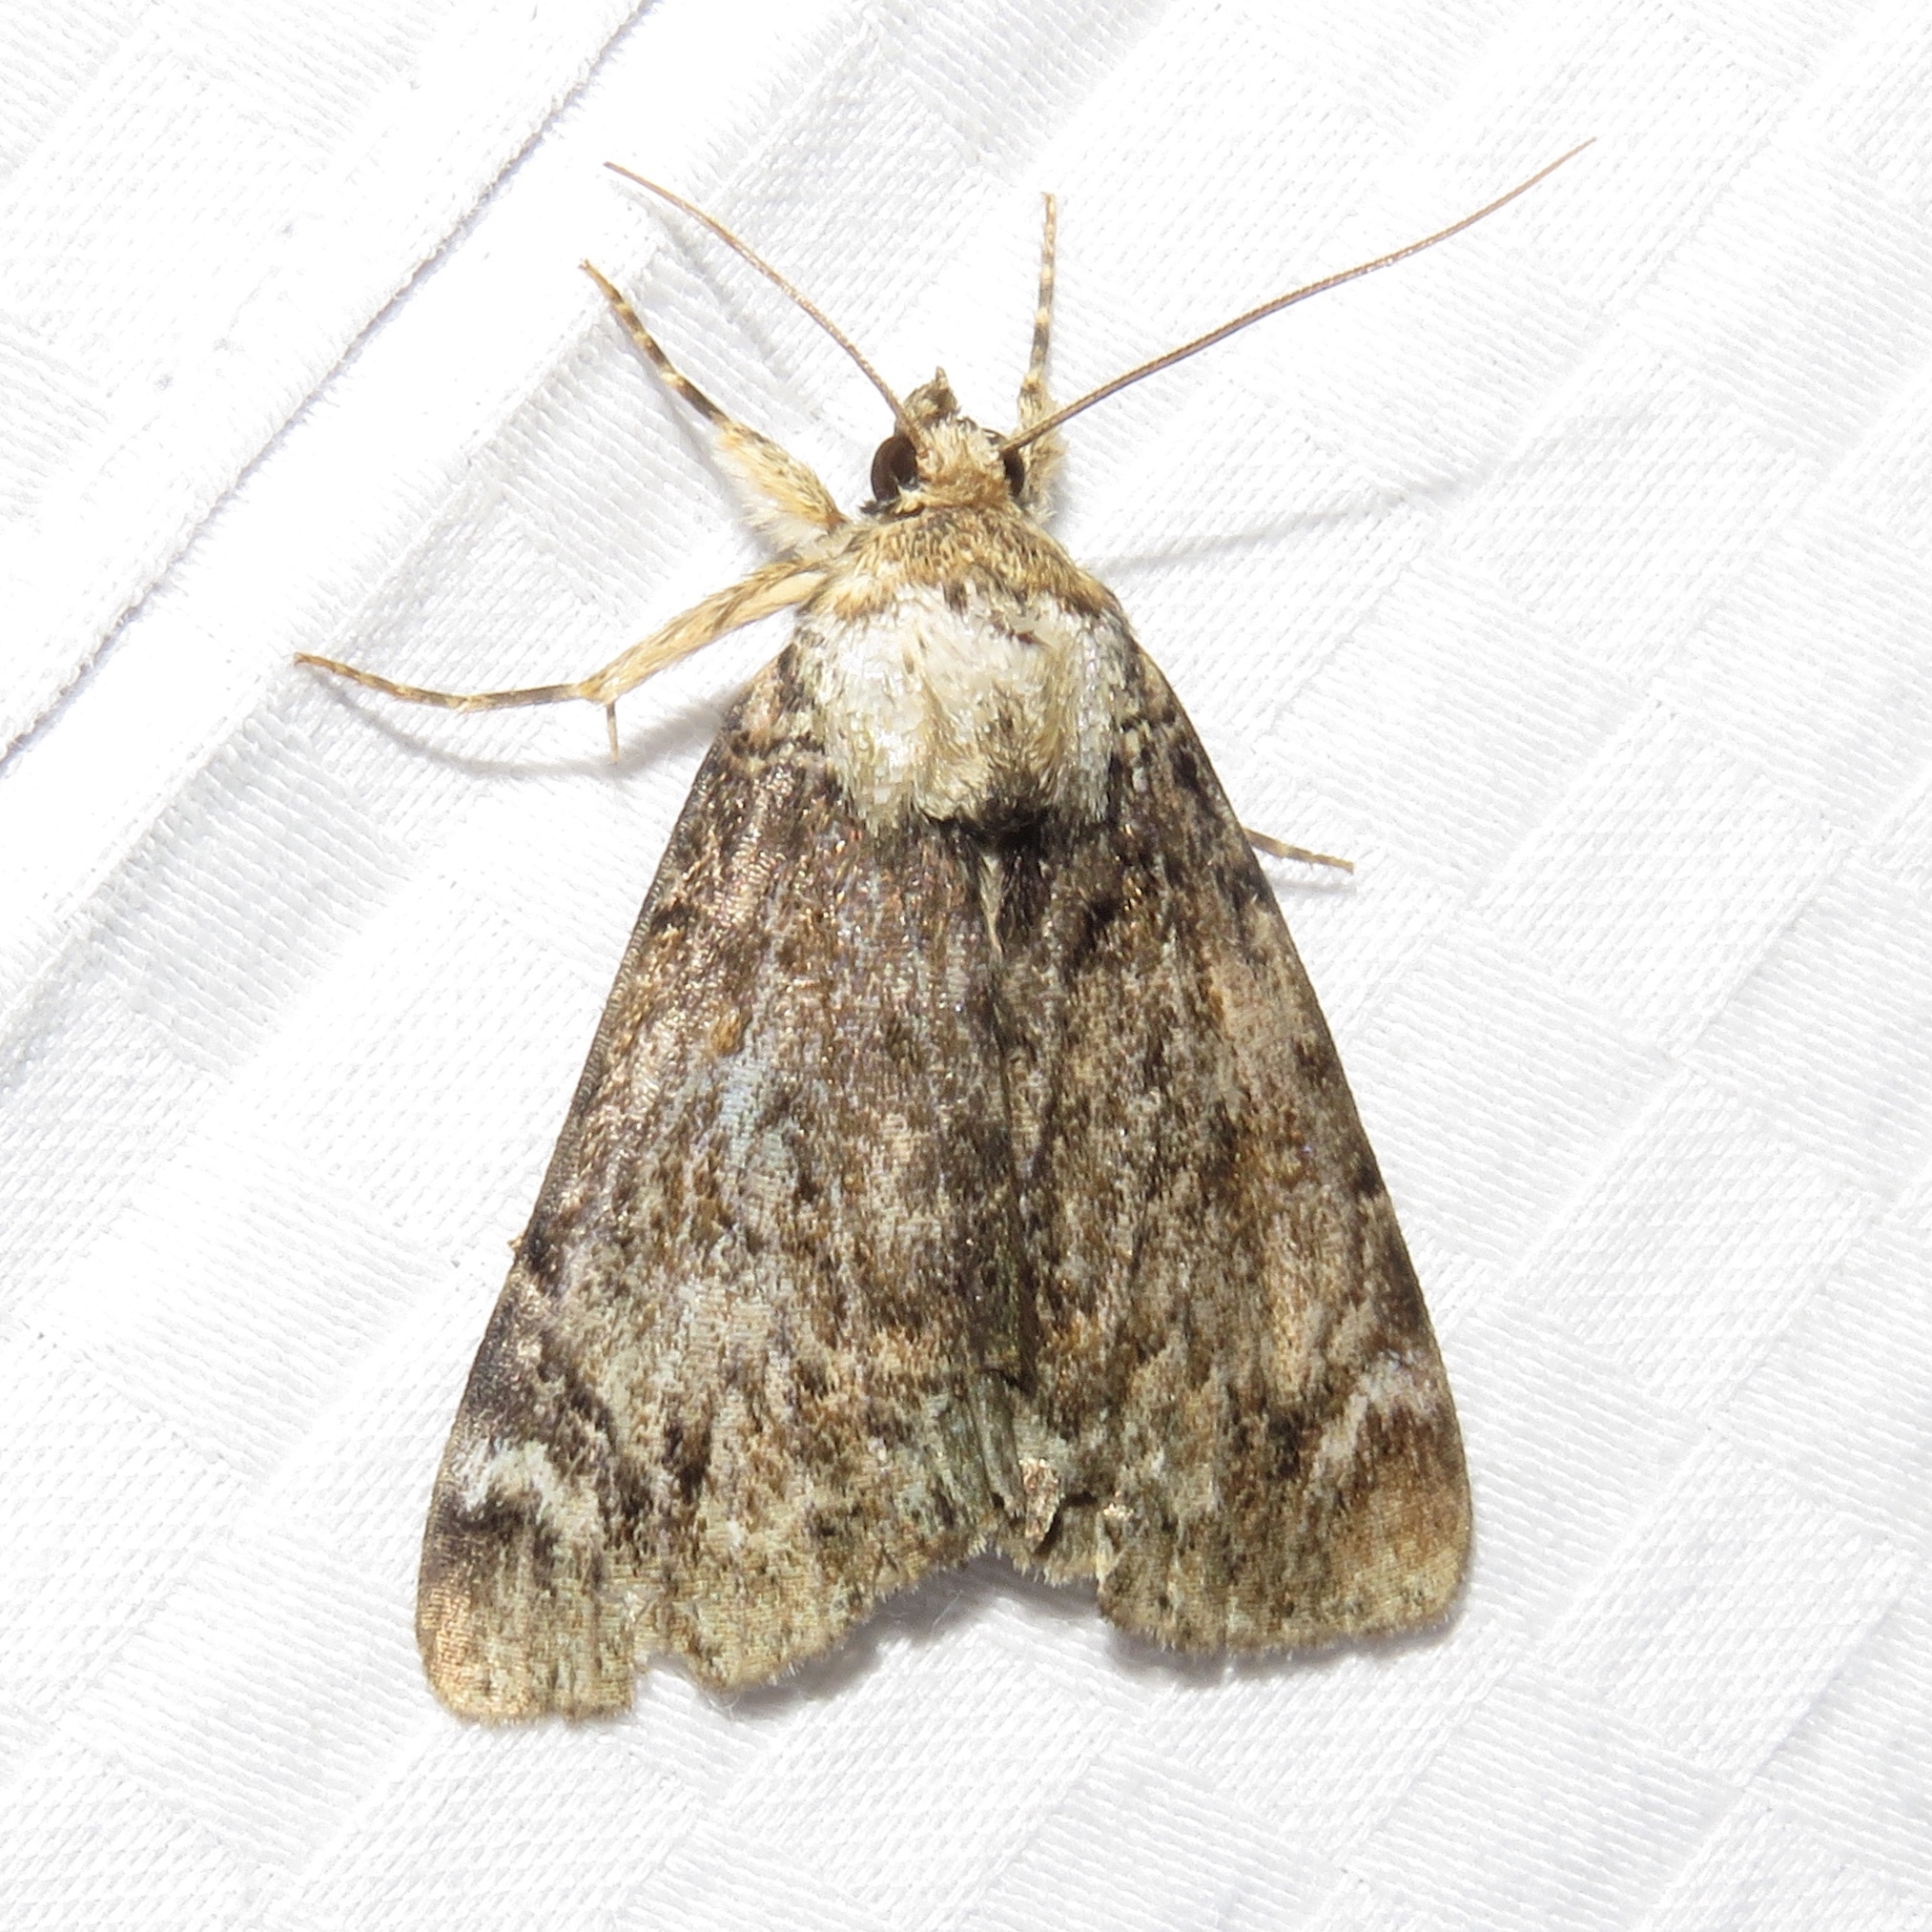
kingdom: Animalia
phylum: Arthropoda
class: Insecta
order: Lepidoptera
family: Erebidae
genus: Catocala
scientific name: Catocala minuta
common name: Little underwing
